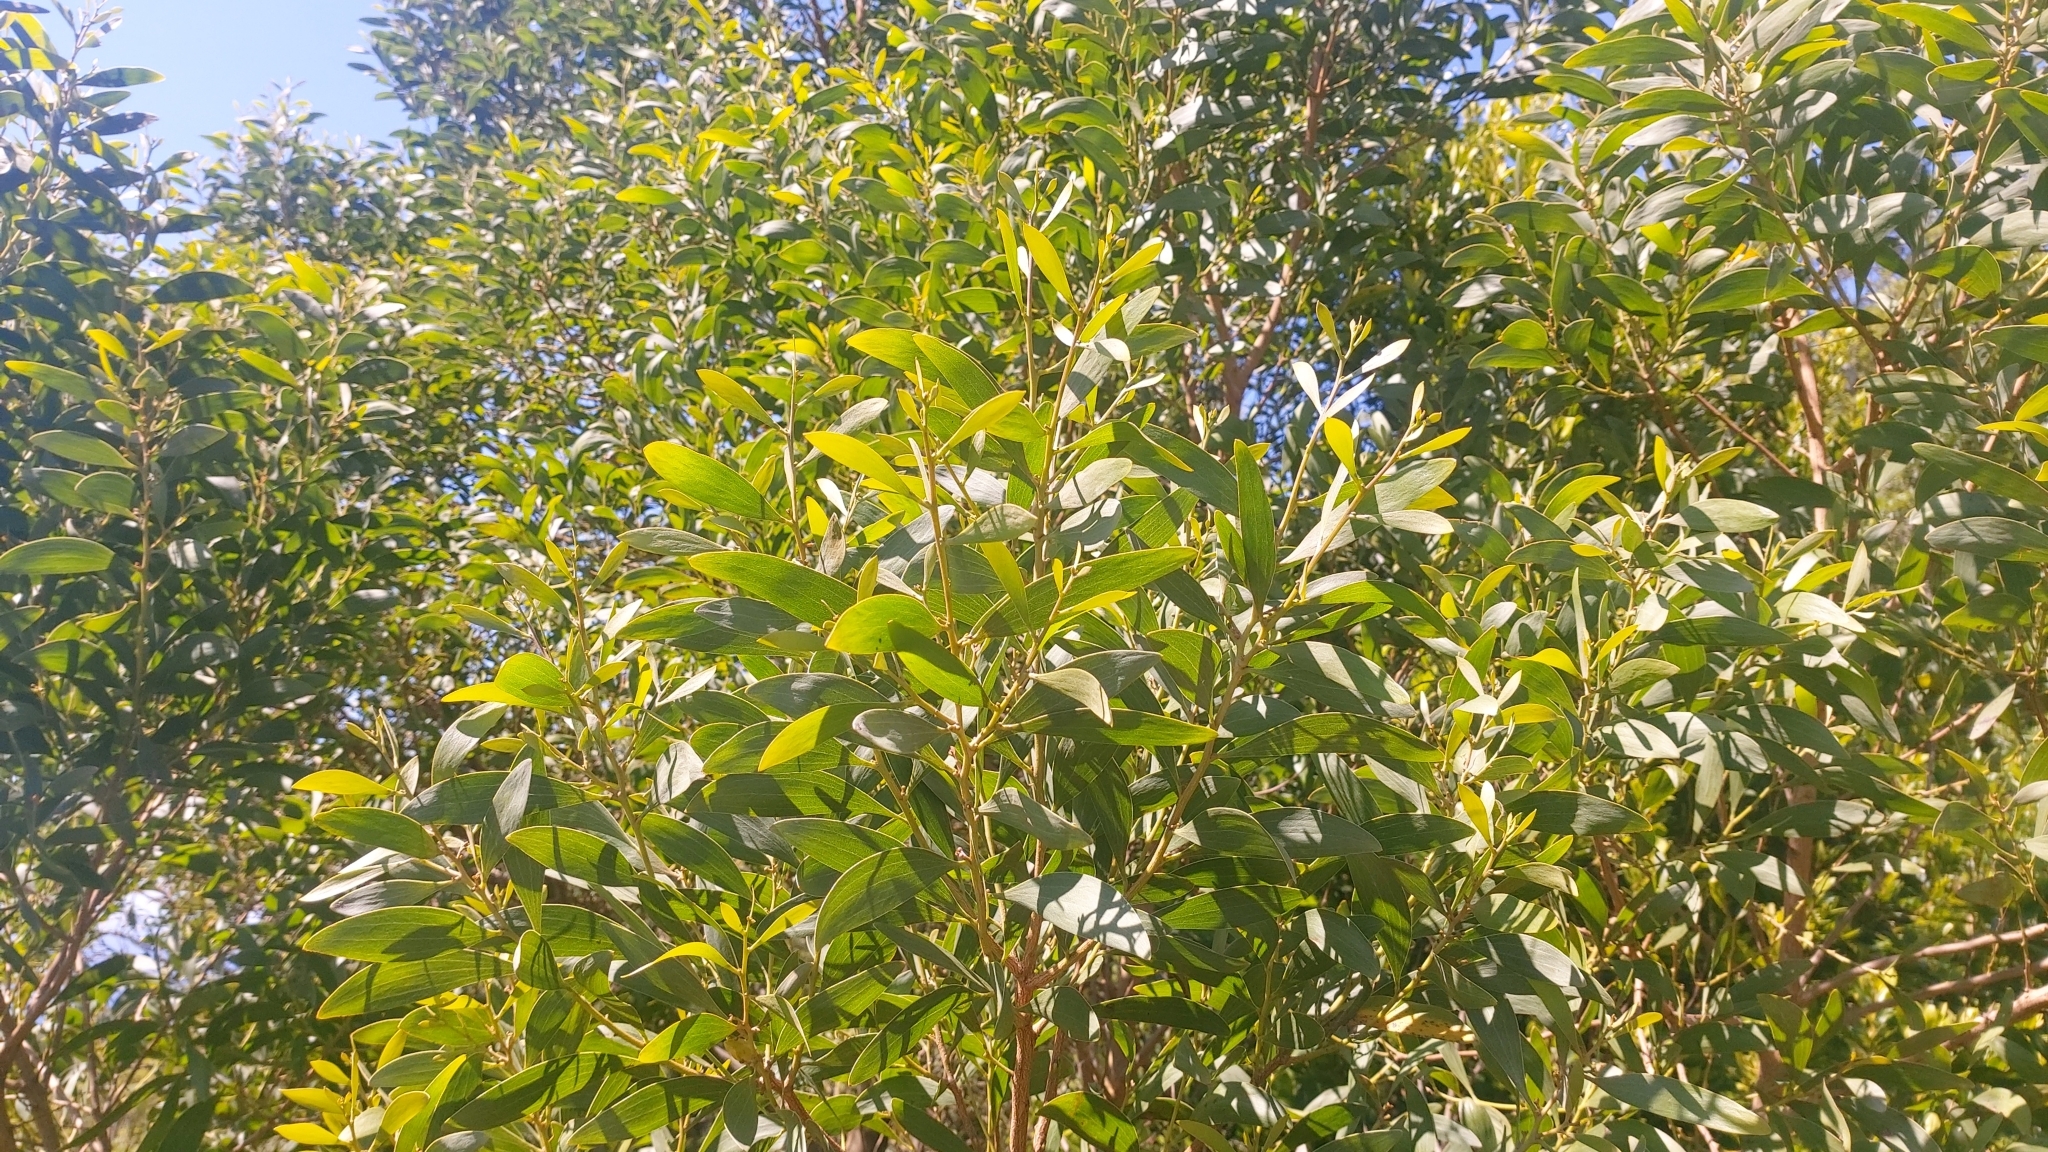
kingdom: Plantae
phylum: Tracheophyta
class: Magnoliopsida
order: Fabales
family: Fabaceae
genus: Acacia
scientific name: Acacia melanoxylon
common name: Blackwood
